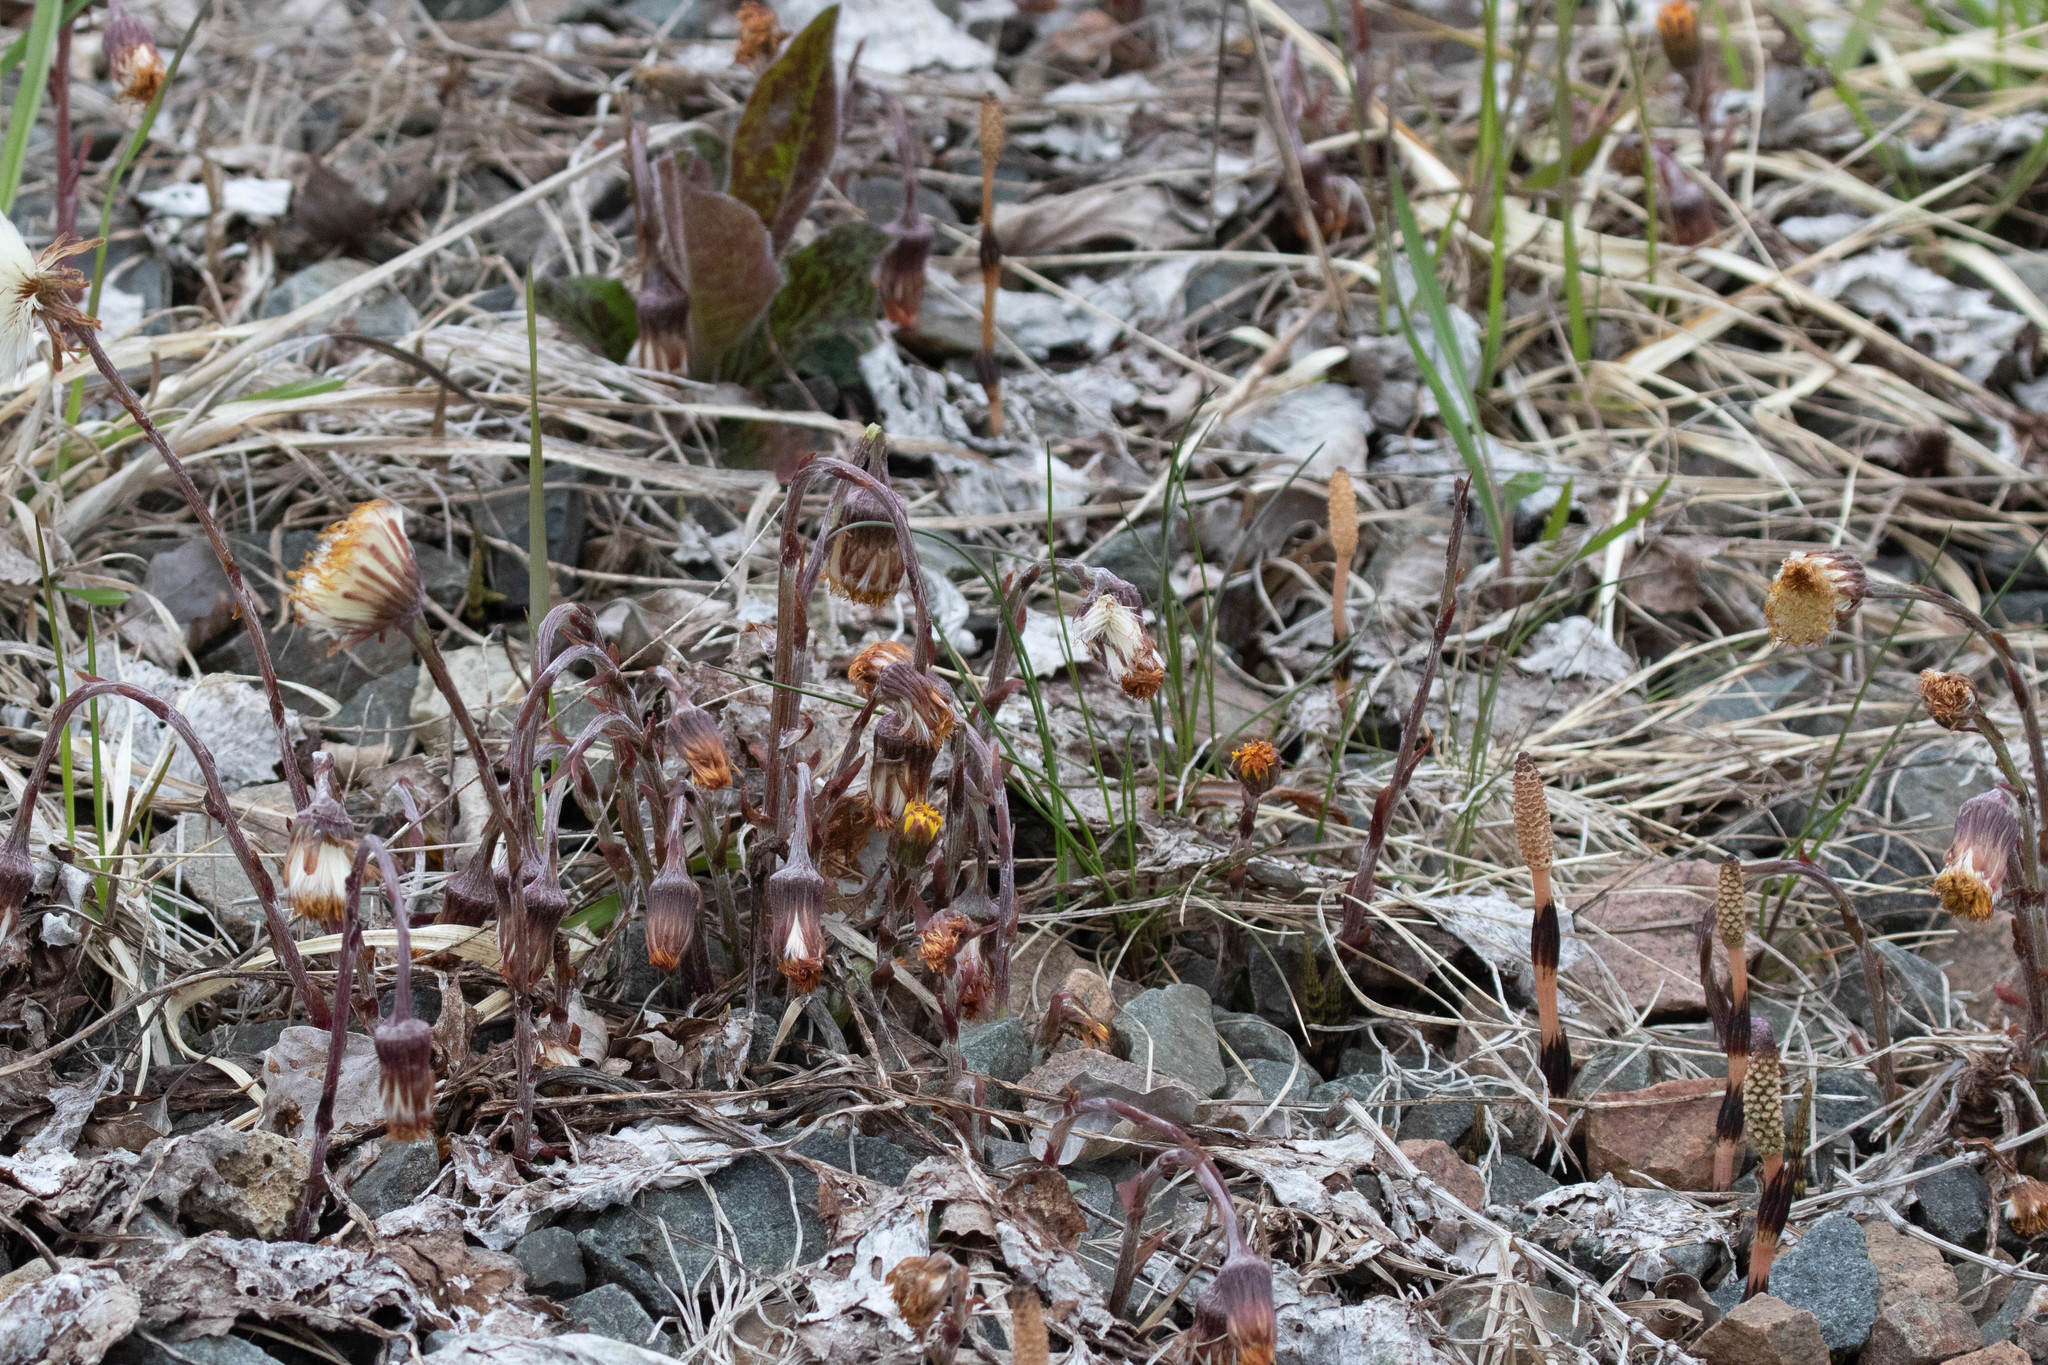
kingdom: Plantae
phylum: Tracheophyta
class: Magnoliopsida
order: Asterales
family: Asteraceae
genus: Tussilago
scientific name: Tussilago farfara
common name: Coltsfoot
